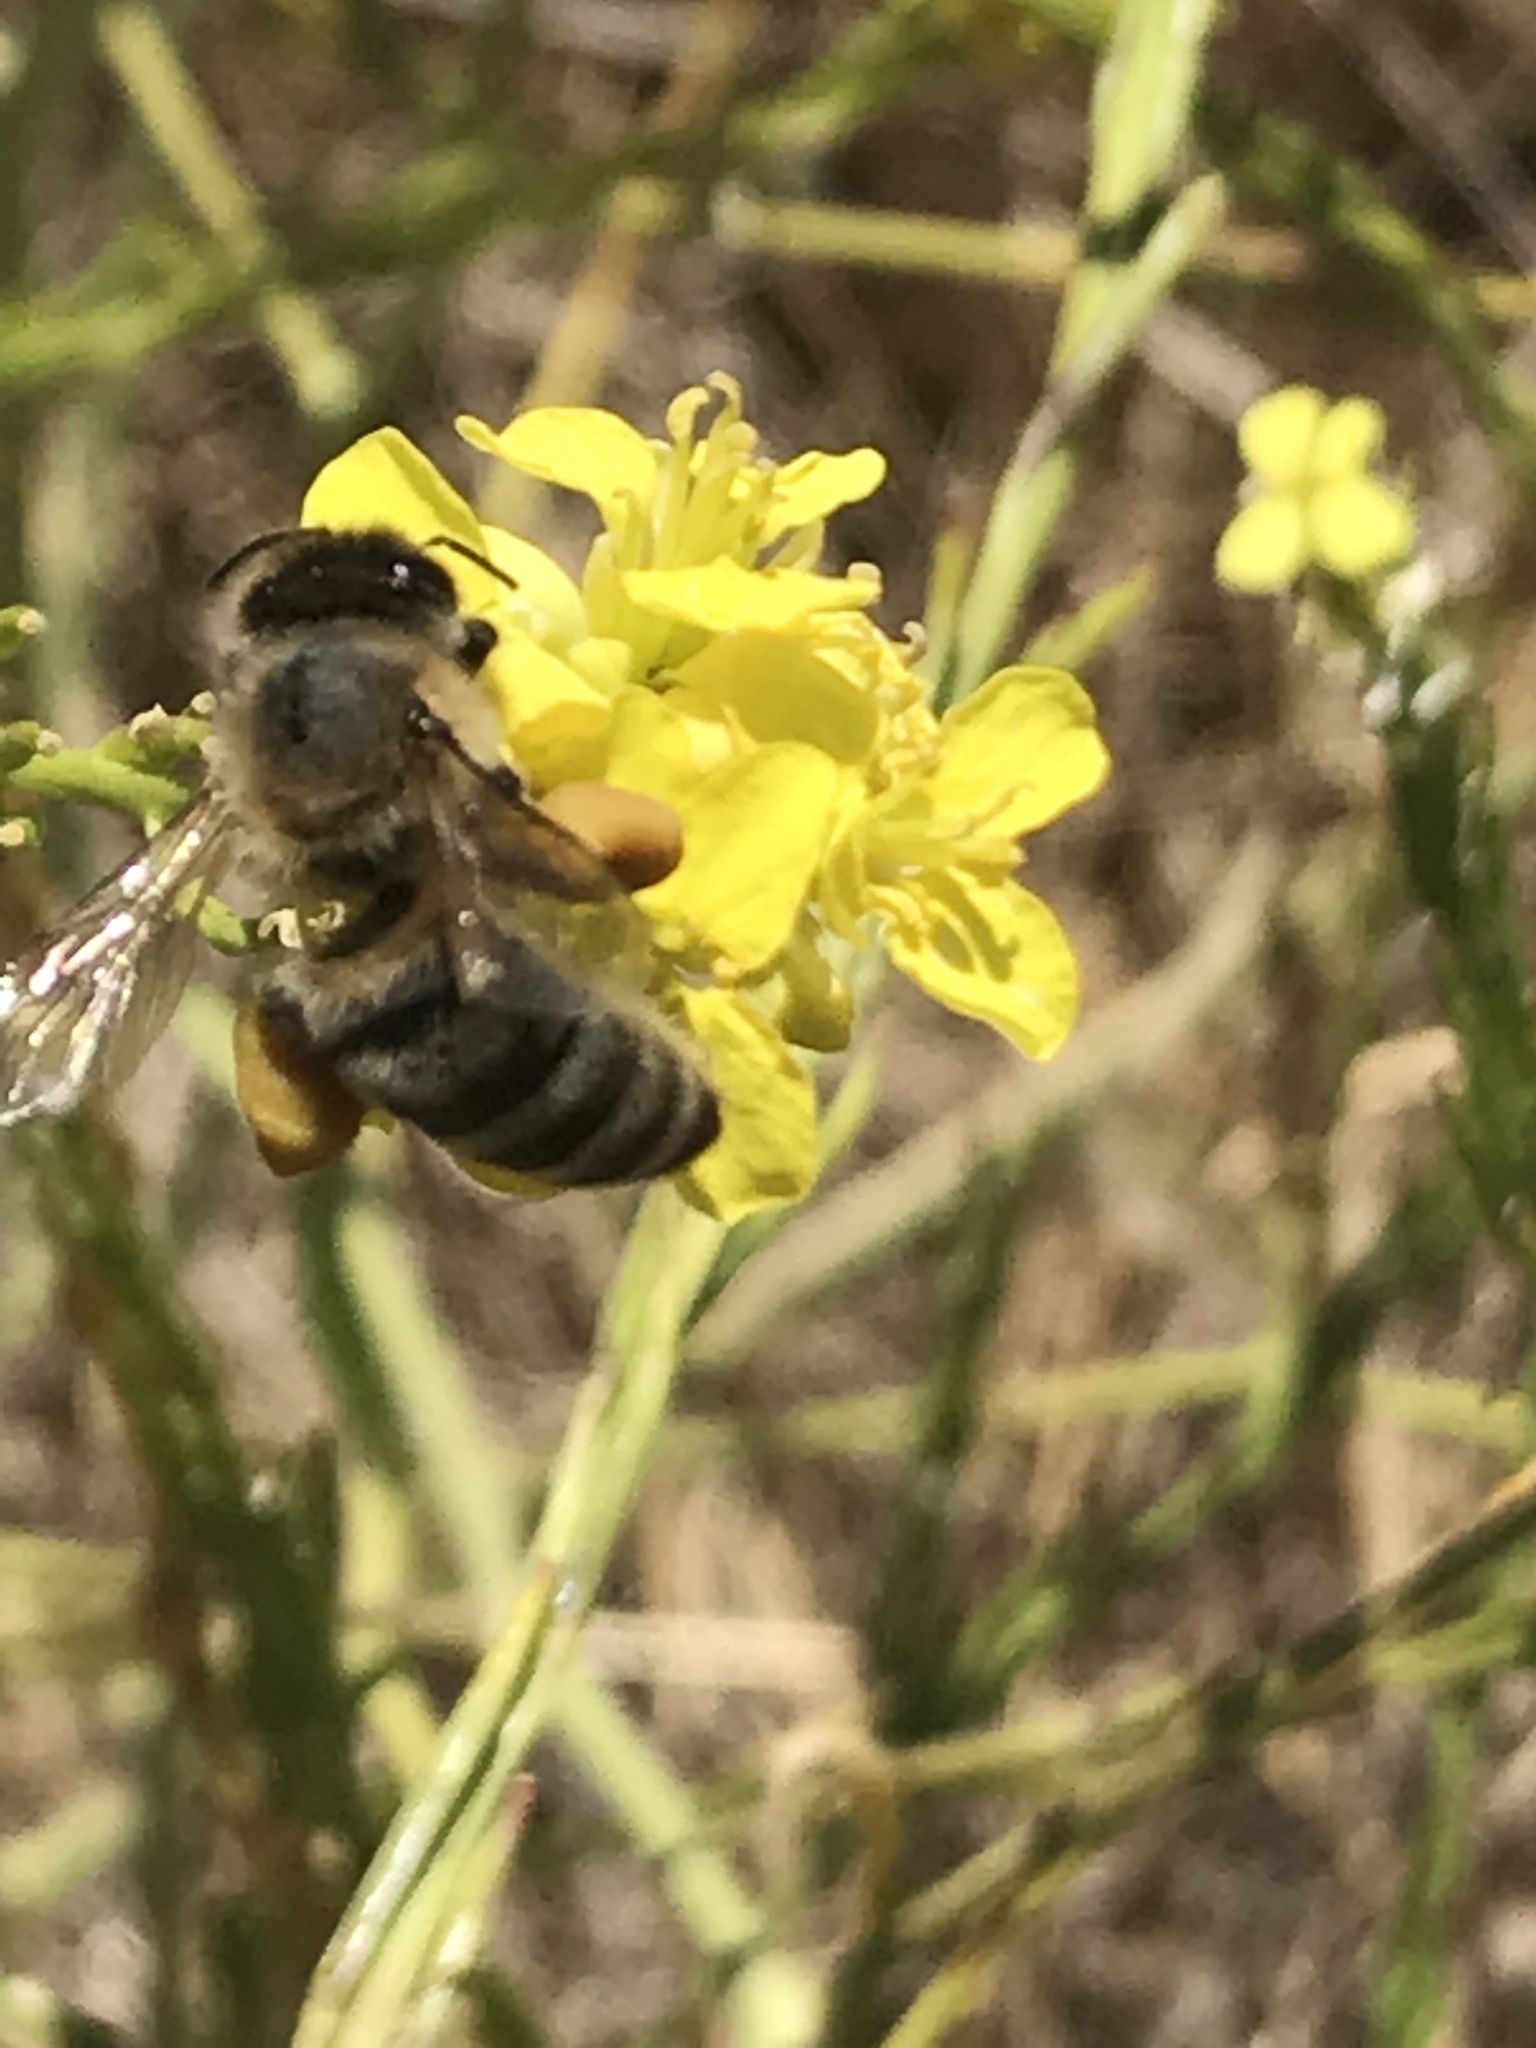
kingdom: Animalia
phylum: Arthropoda
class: Insecta
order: Hymenoptera
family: Apidae
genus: Apis
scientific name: Apis mellifera
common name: Honey bee
